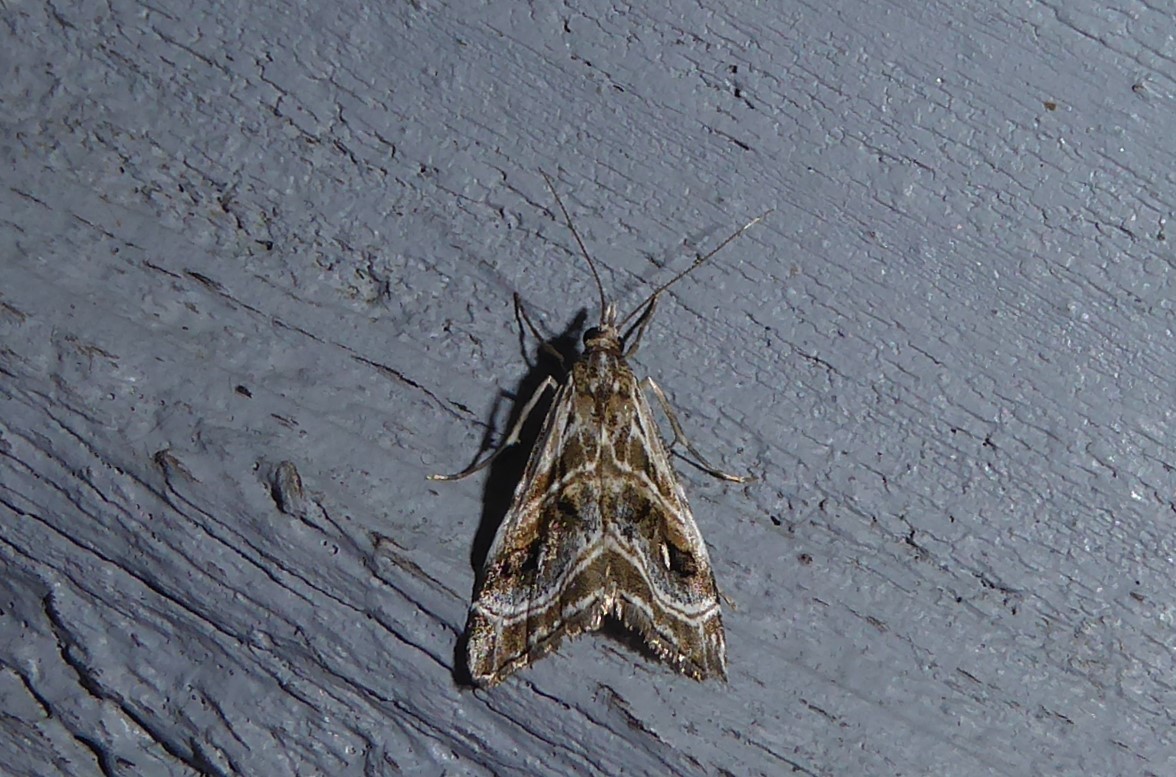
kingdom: Animalia
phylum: Arthropoda
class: Insecta
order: Lepidoptera
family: Crambidae
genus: Gadira
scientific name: Gadira acerella
